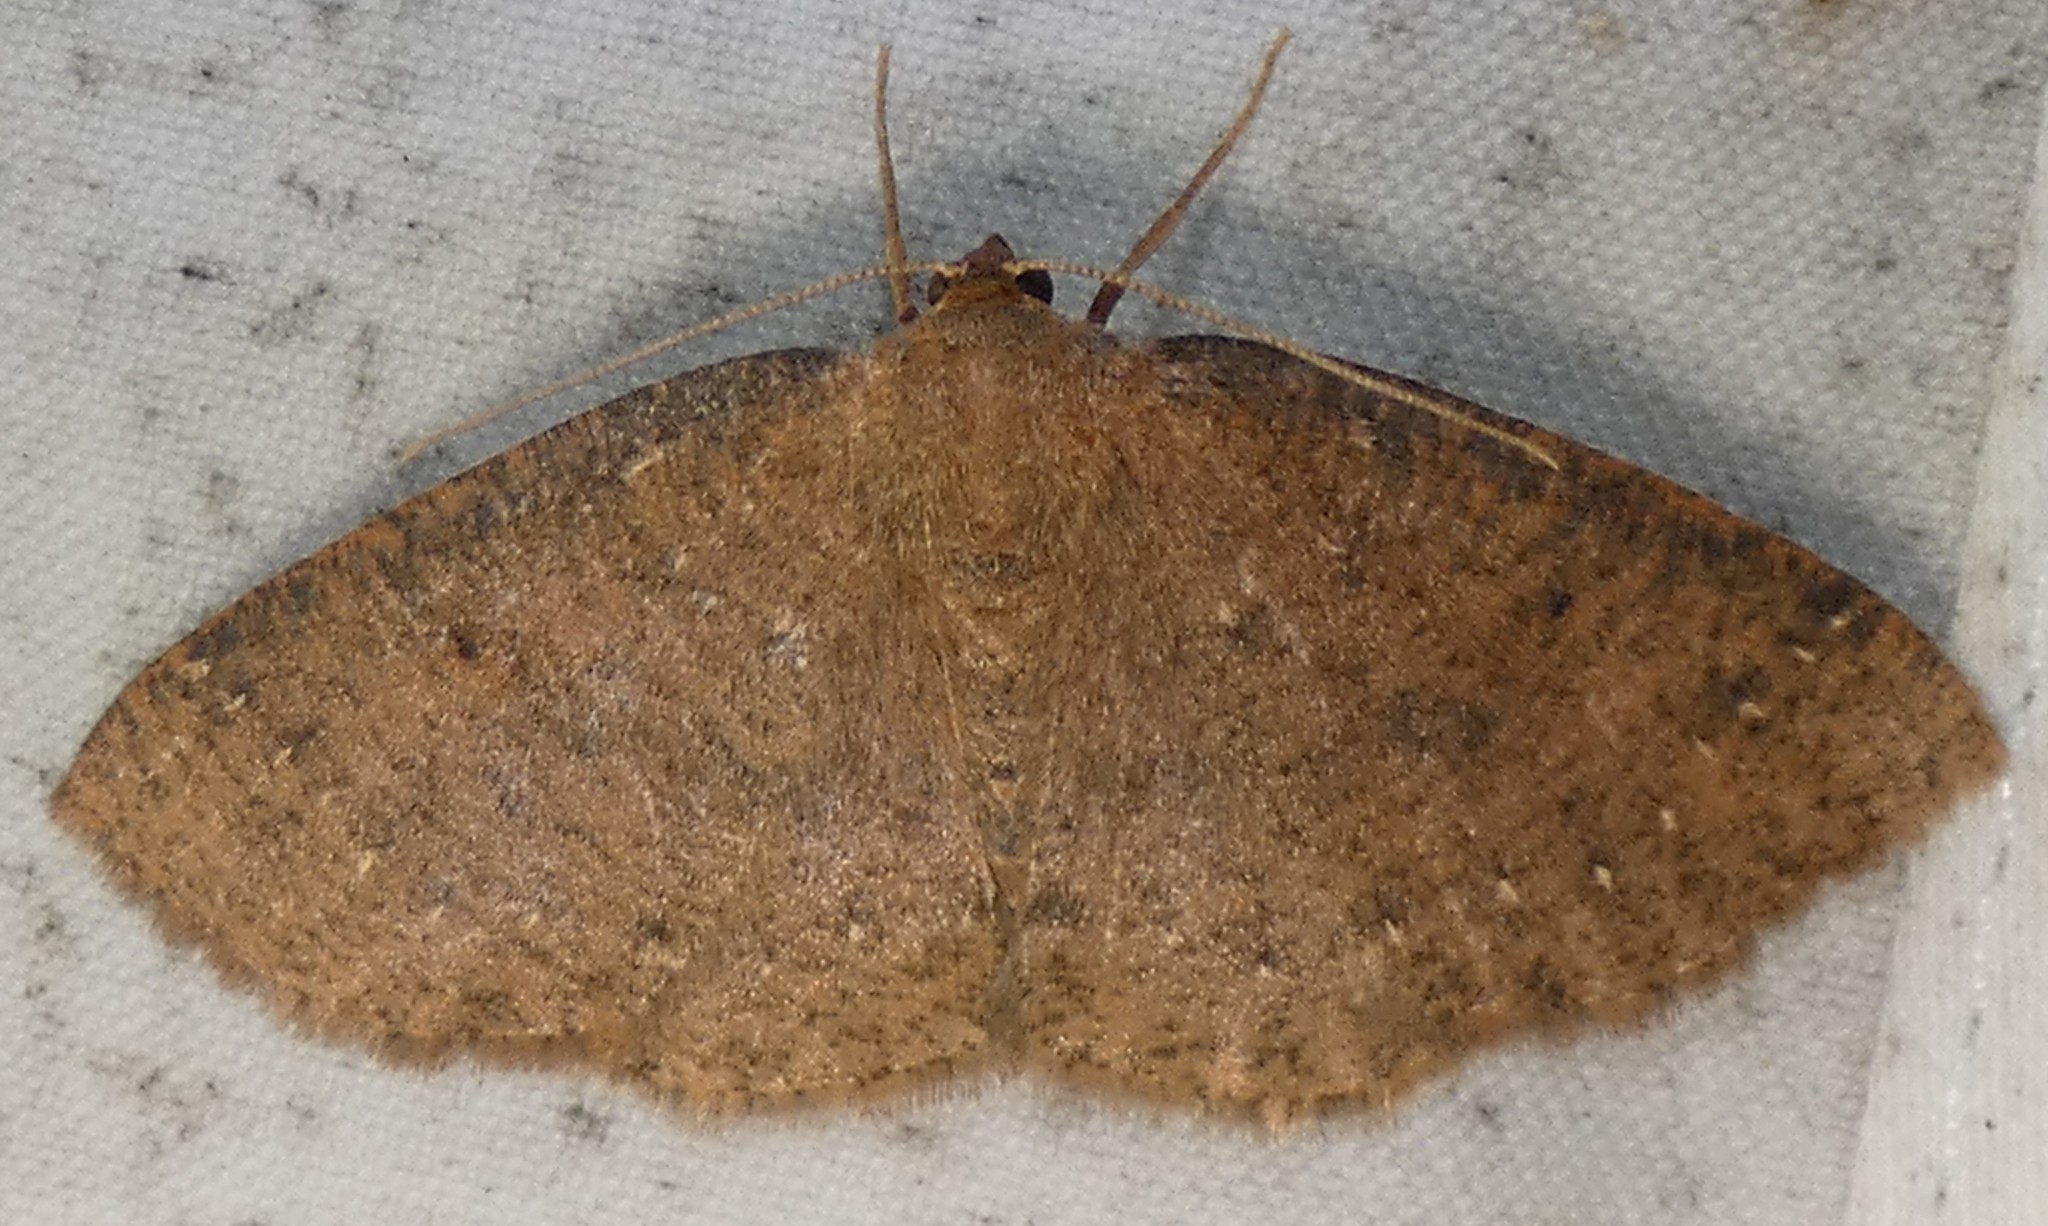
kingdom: Animalia
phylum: Arthropoda
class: Insecta
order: Lepidoptera
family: Geometridae
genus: Ilexia
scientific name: Ilexia intractata
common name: Black-dotted ruddy moth
